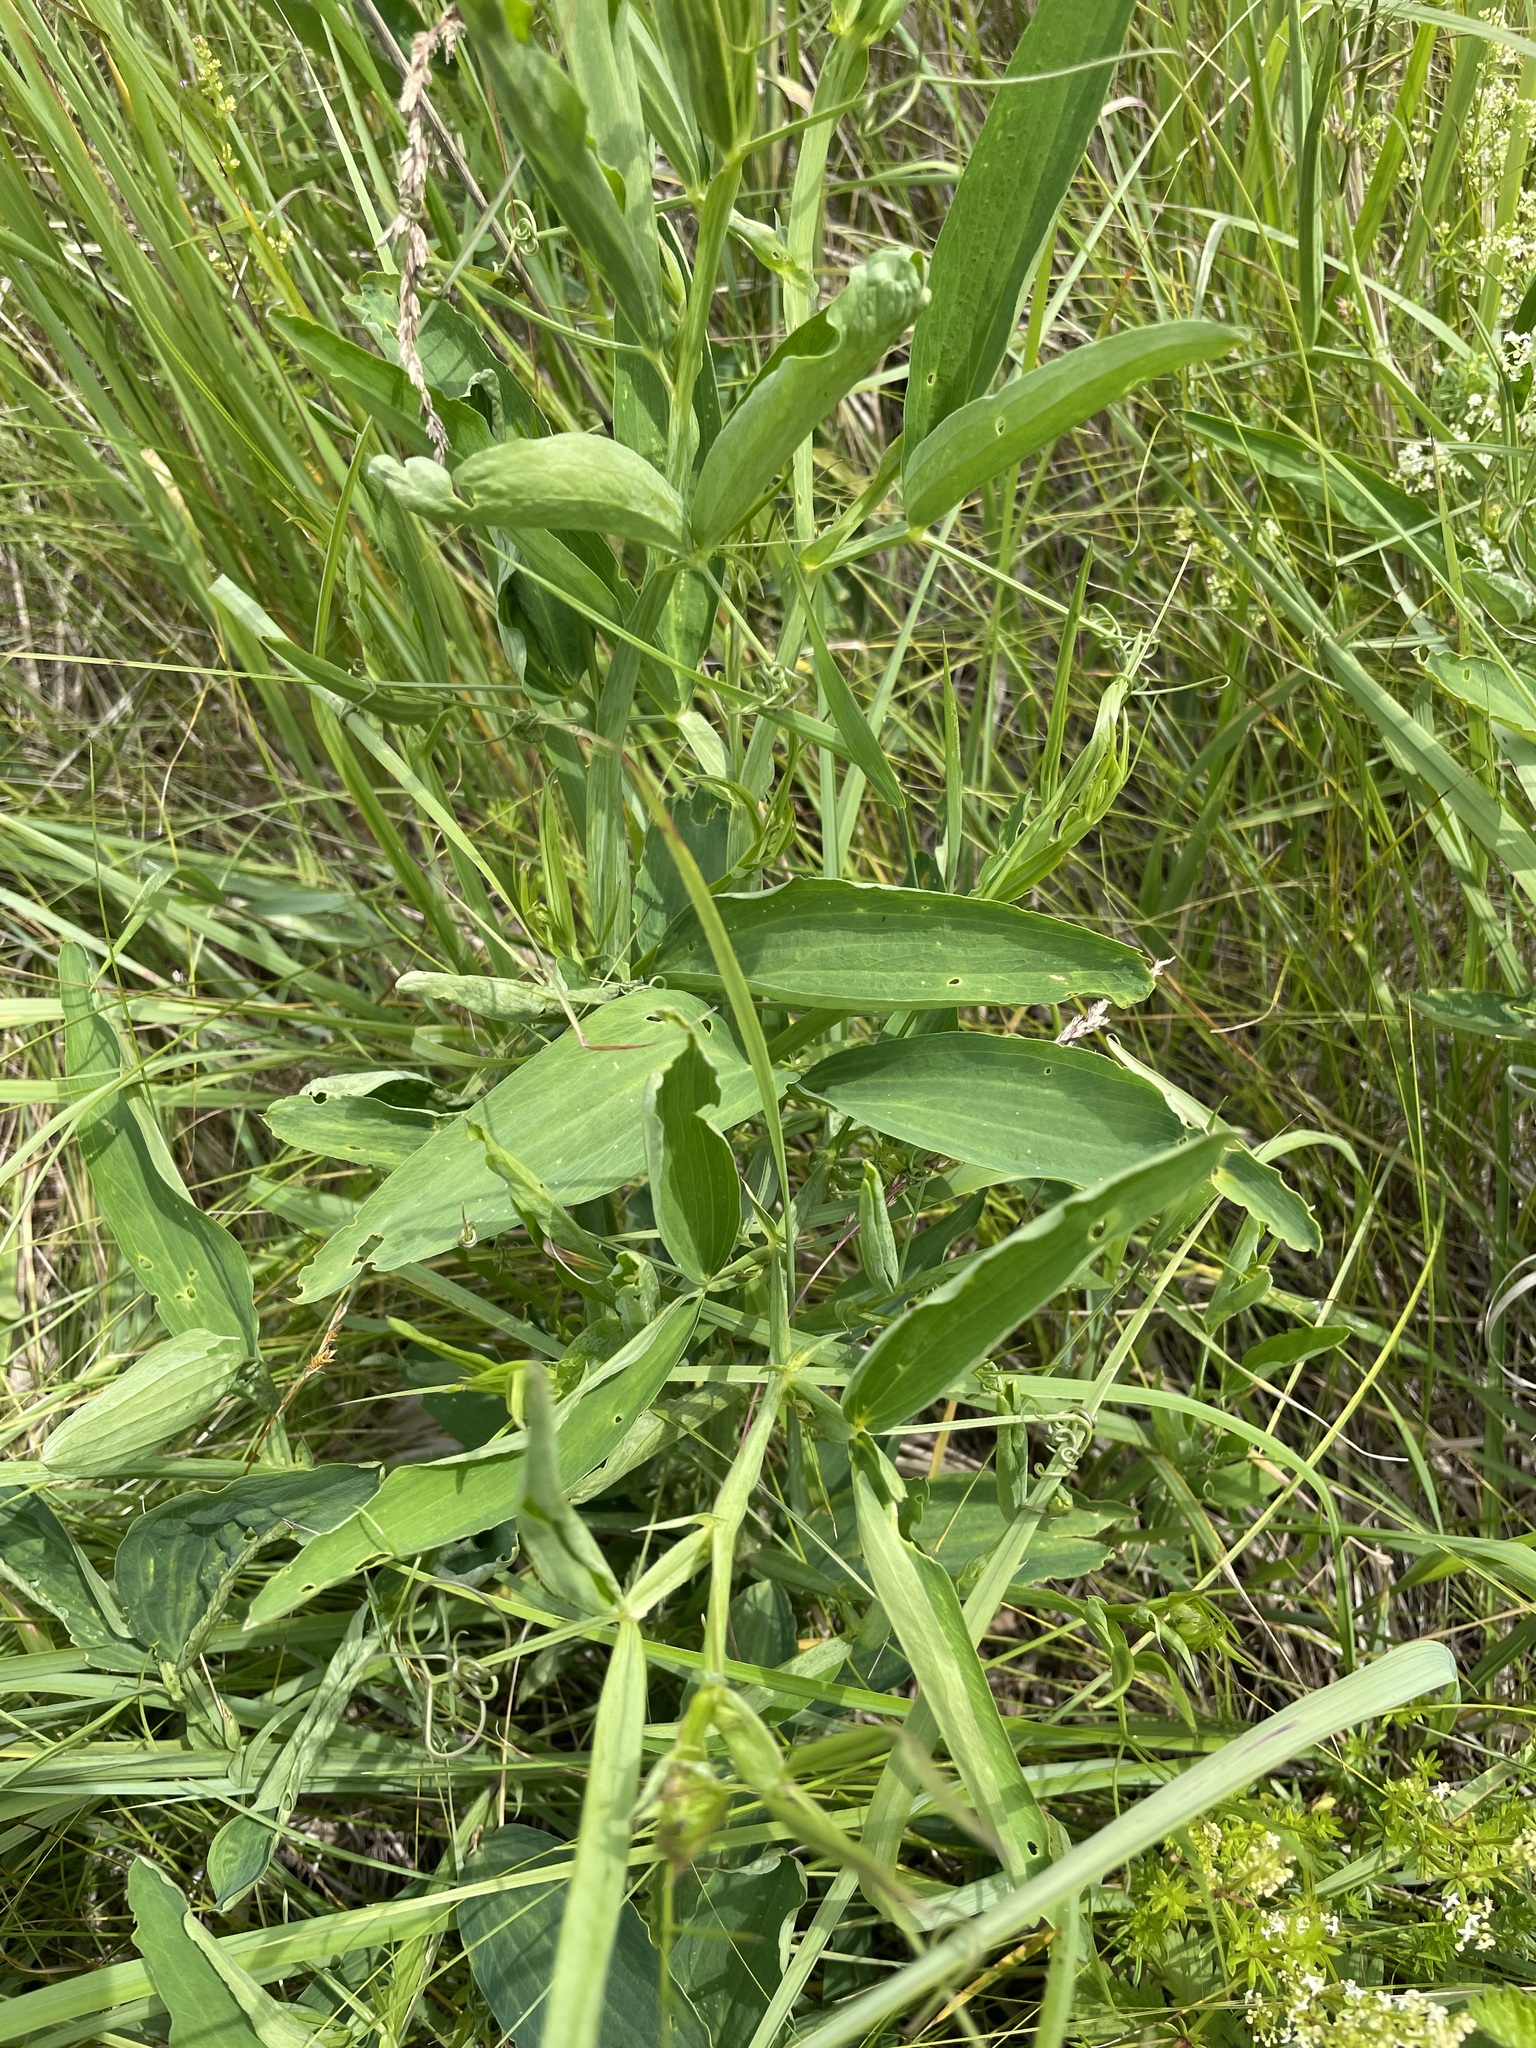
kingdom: Plantae
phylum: Tracheophyta
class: Magnoliopsida
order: Fabales
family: Fabaceae
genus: Lathyrus
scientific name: Lathyrus sylvestris
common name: Flat pea
